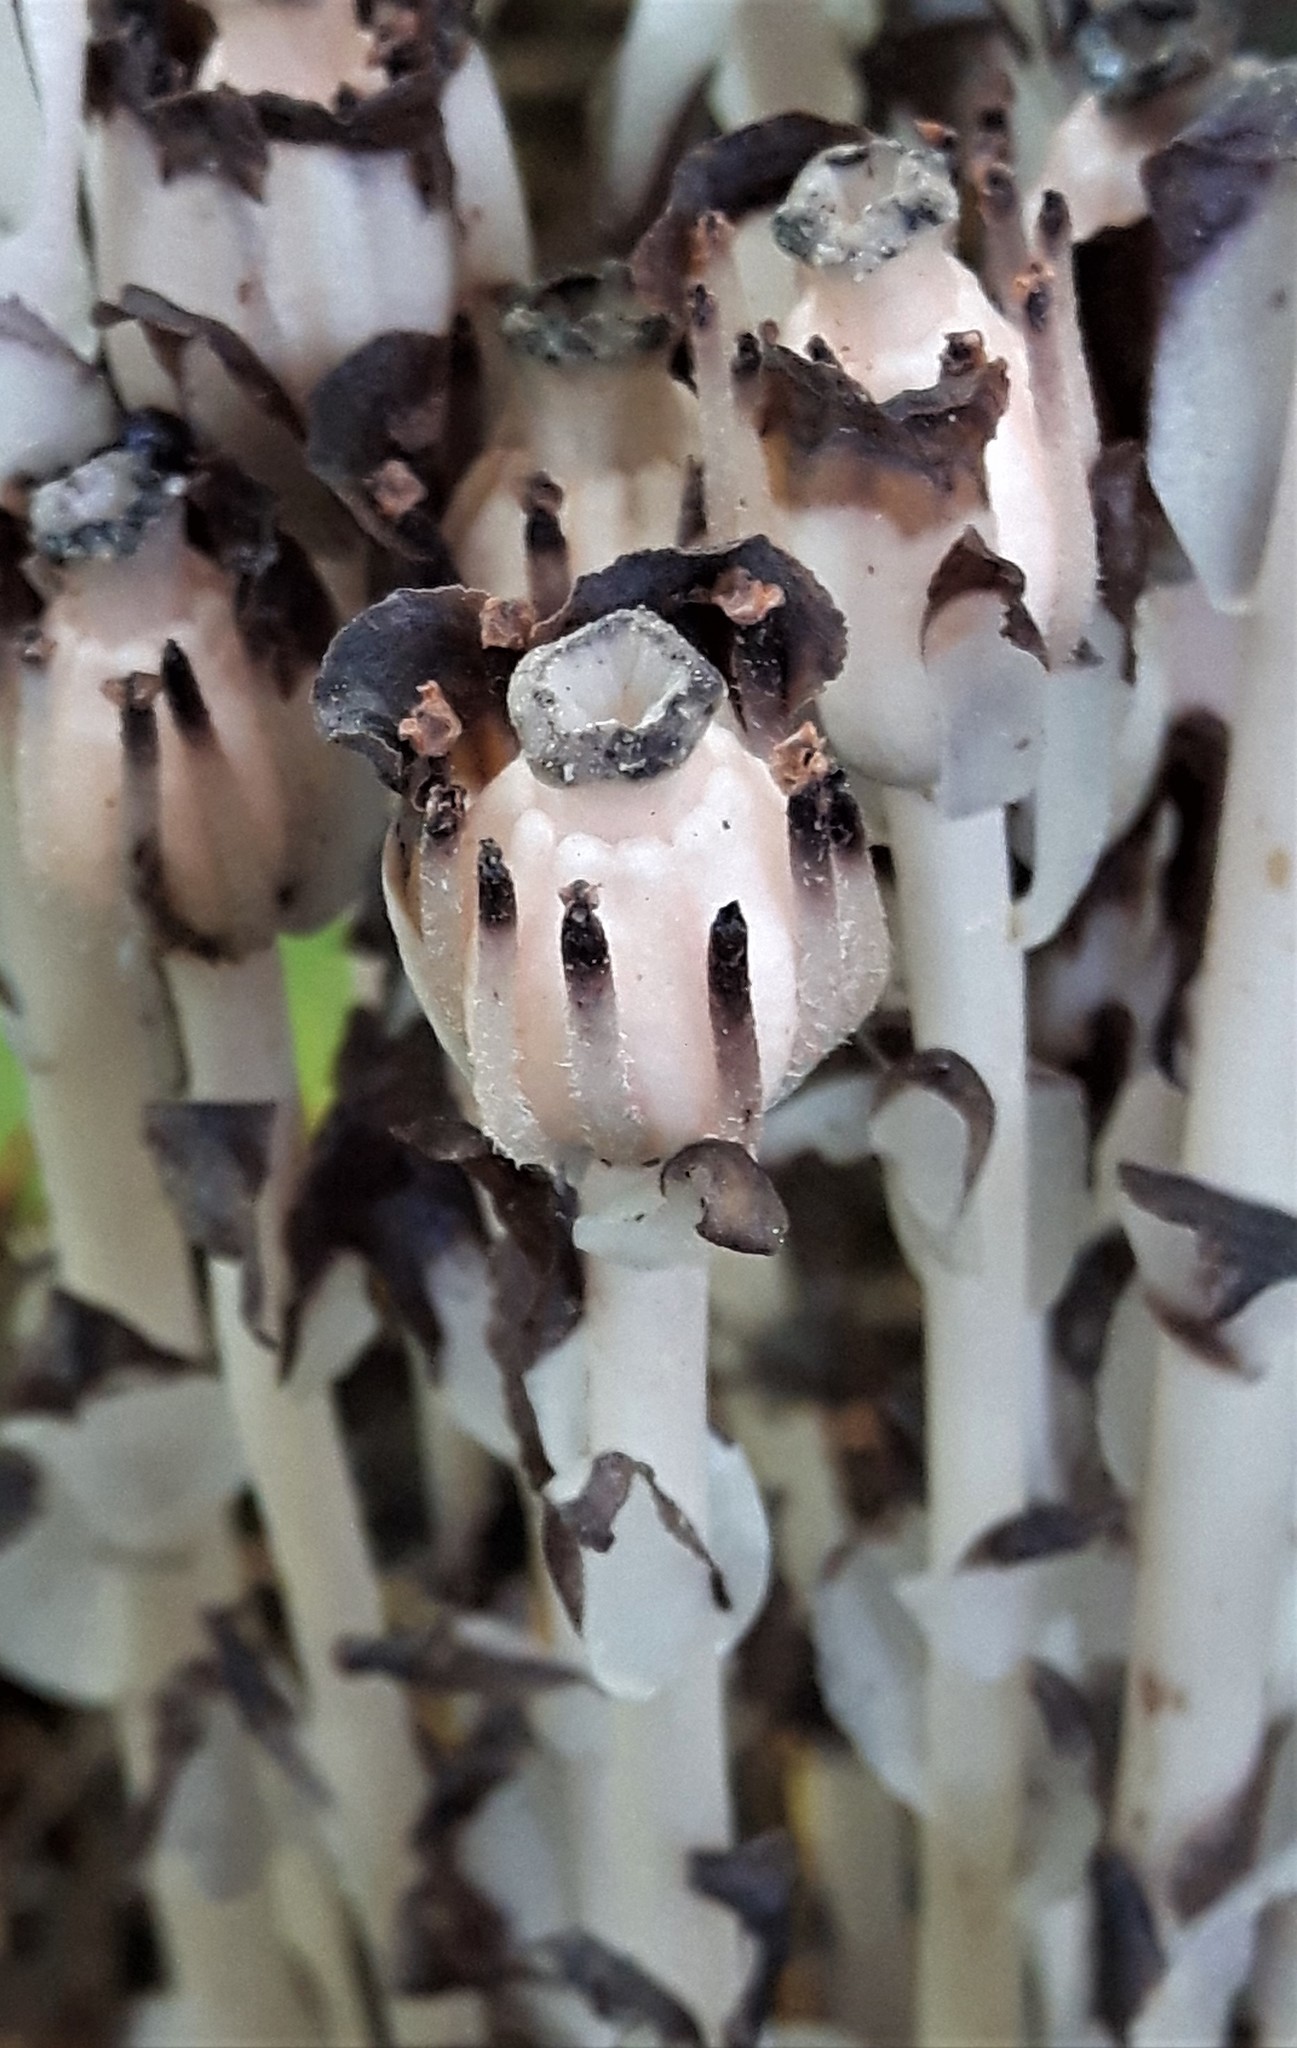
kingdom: Plantae
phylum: Tracheophyta
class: Magnoliopsida
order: Ericales
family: Ericaceae
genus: Monotropa
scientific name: Monotropa uniflora
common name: Convulsion root
